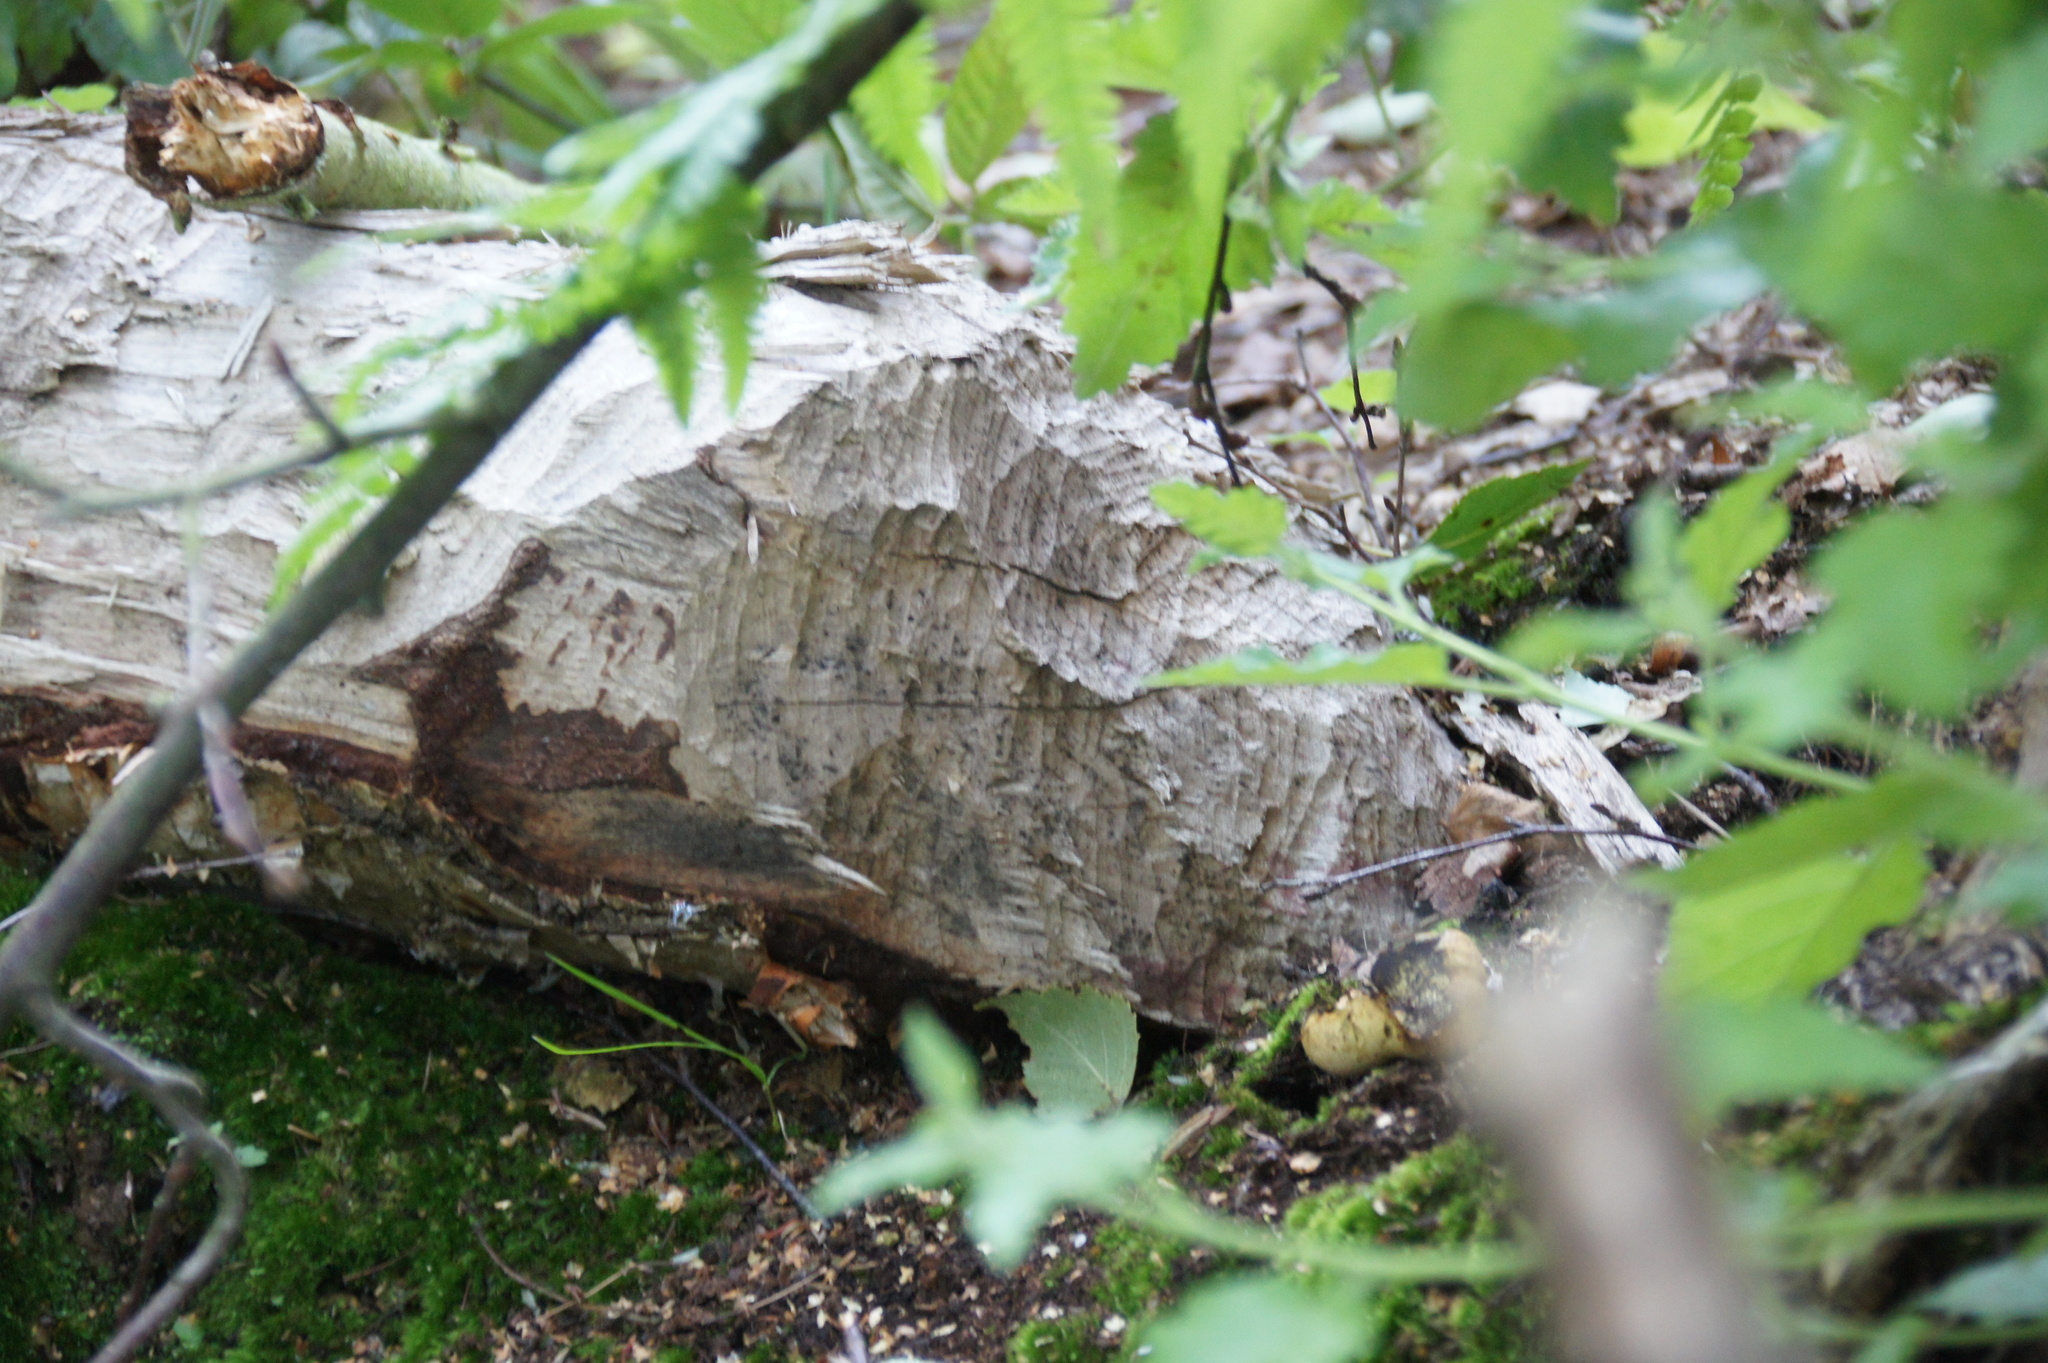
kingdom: Animalia
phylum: Chordata
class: Mammalia
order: Rodentia
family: Castoridae
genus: Castor
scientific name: Castor fiber
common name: Eurasian beaver
